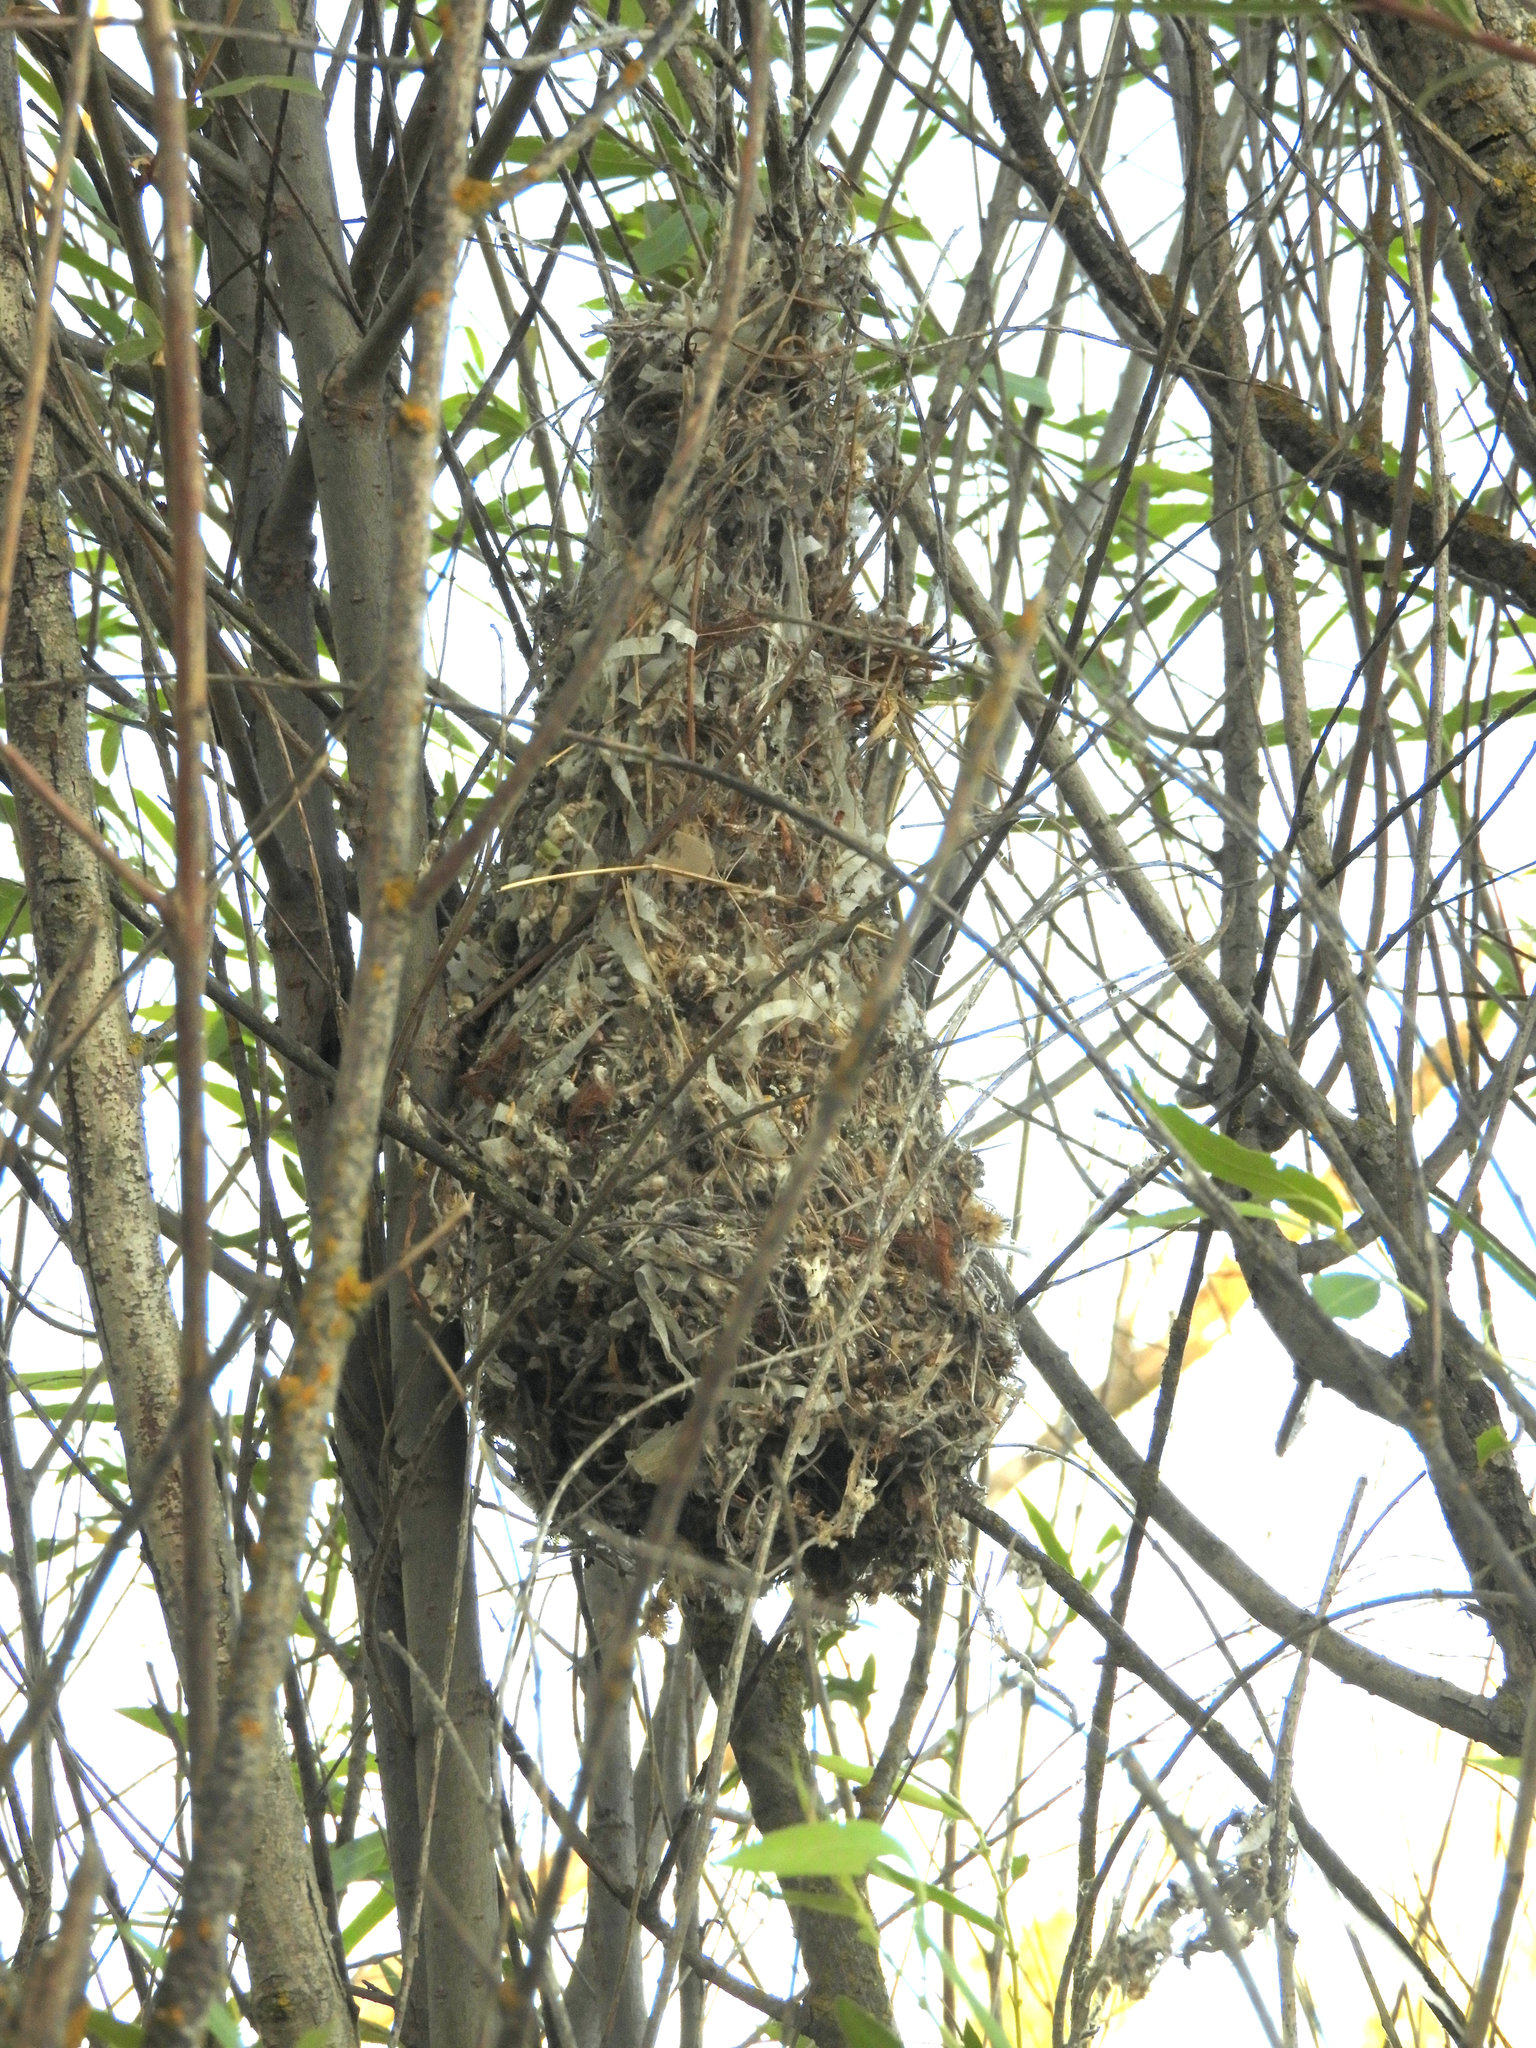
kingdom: Animalia
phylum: Chordata
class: Aves
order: Passeriformes
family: Aegithalidae
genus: Psaltriparus
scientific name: Psaltriparus minimus
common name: American bushtit
